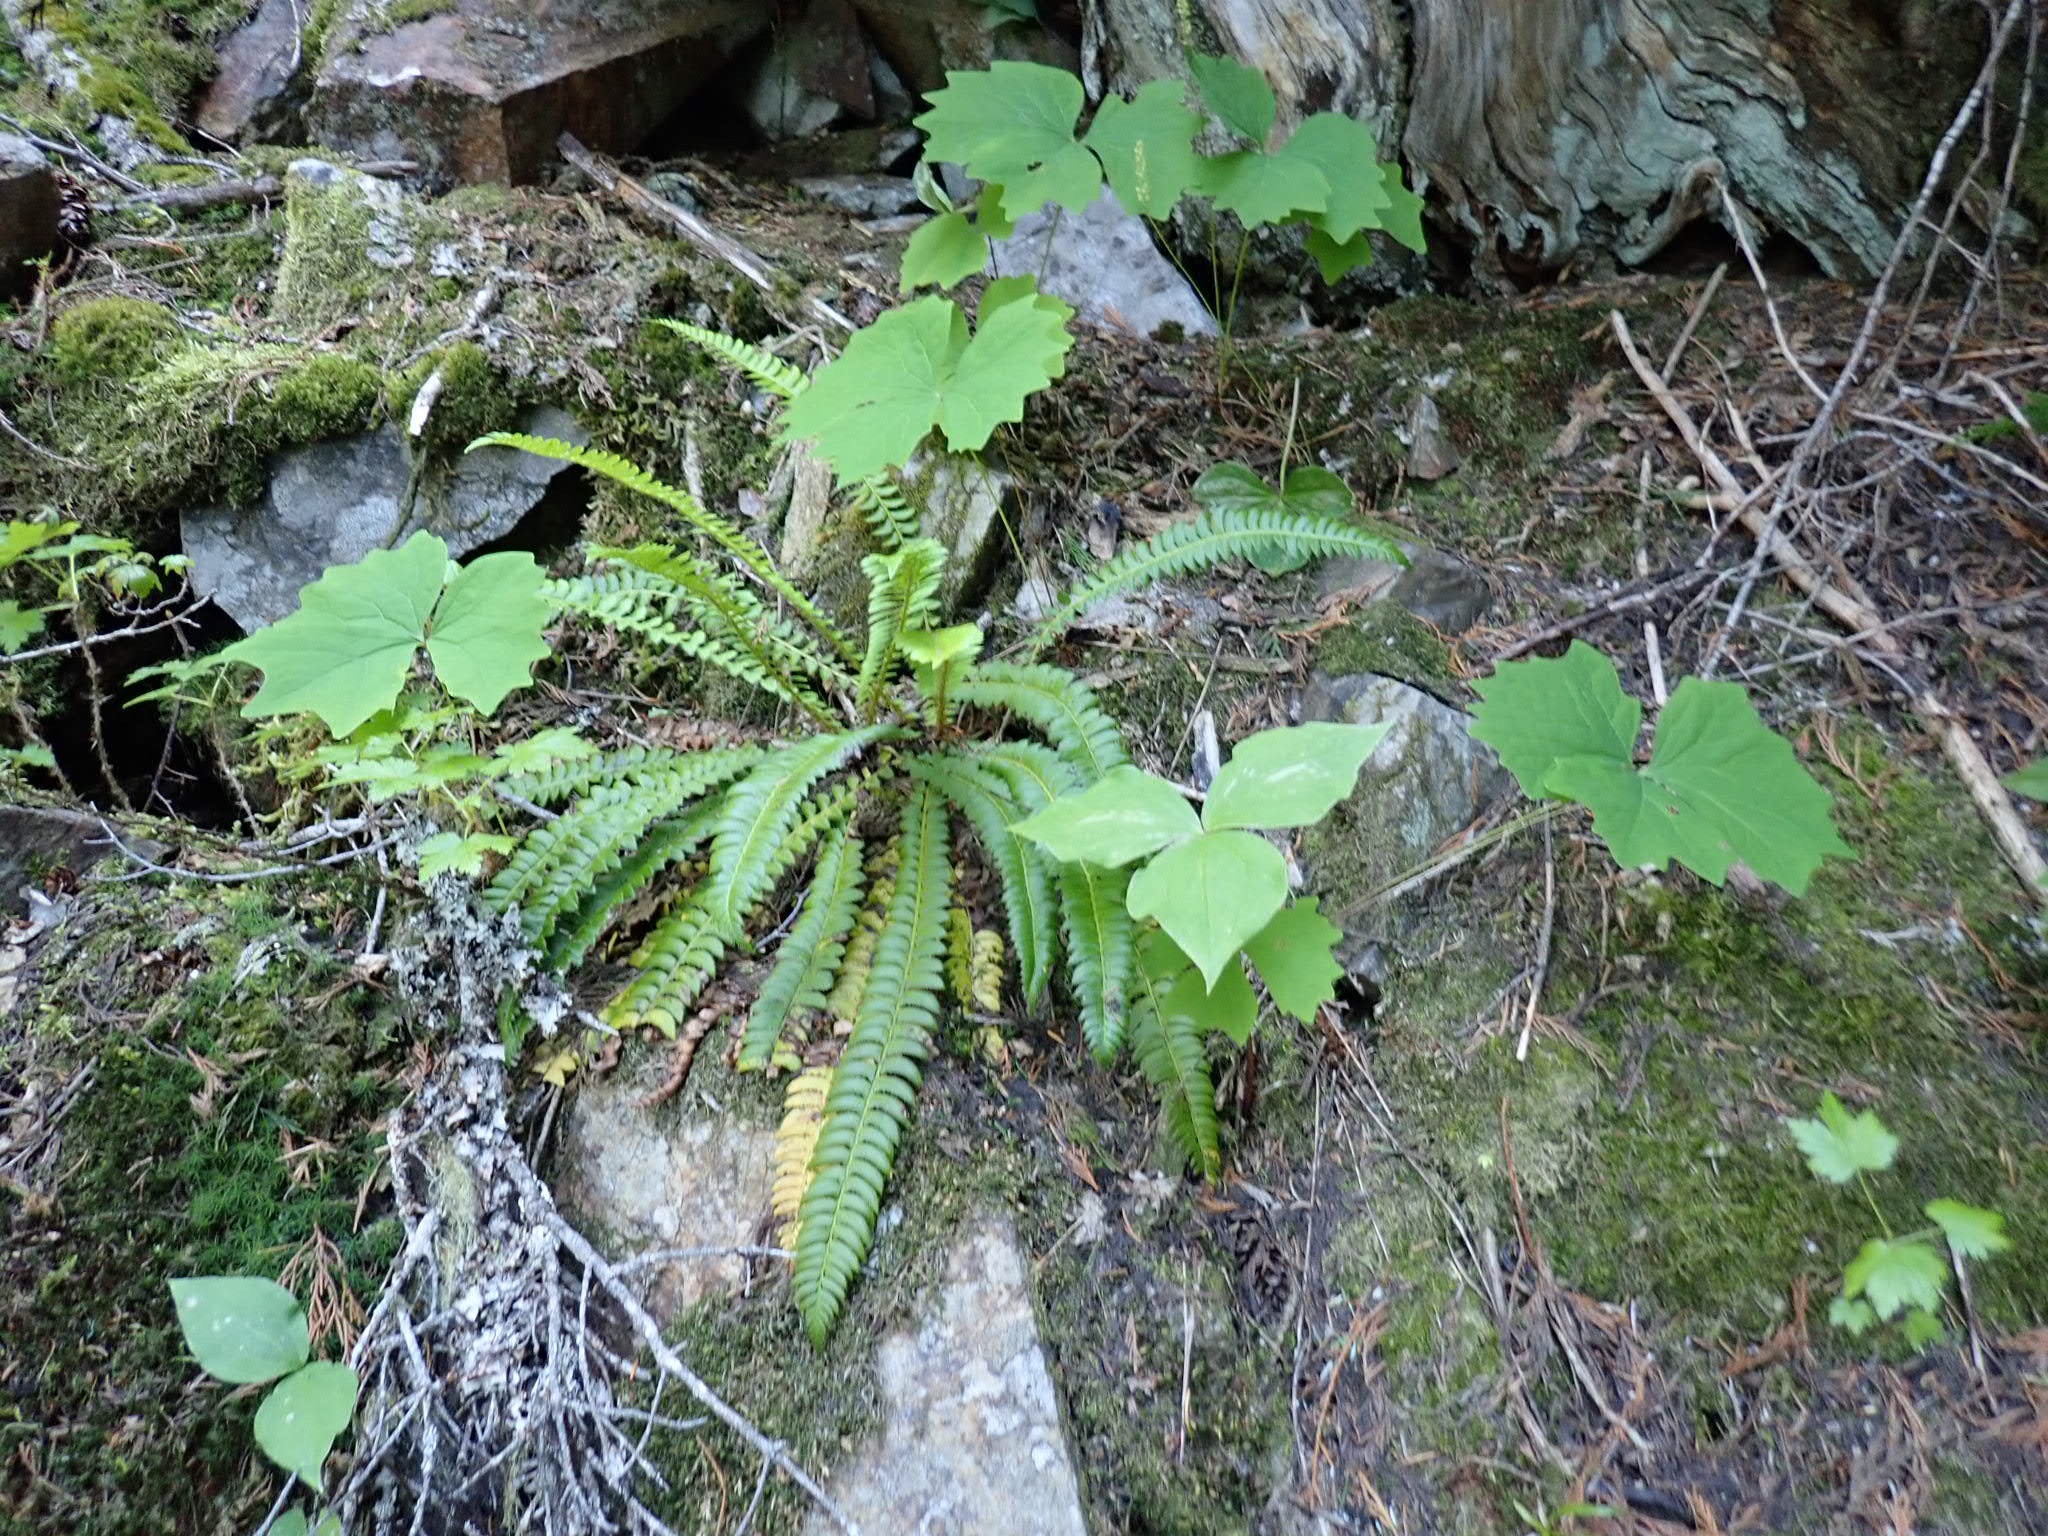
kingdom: Plantae
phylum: Tracheophyta
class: Polypodiopsida
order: Polypodiales
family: Blechnaceae
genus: Struthiopteris
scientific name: Struthiopteris spicant
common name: Deer fern
